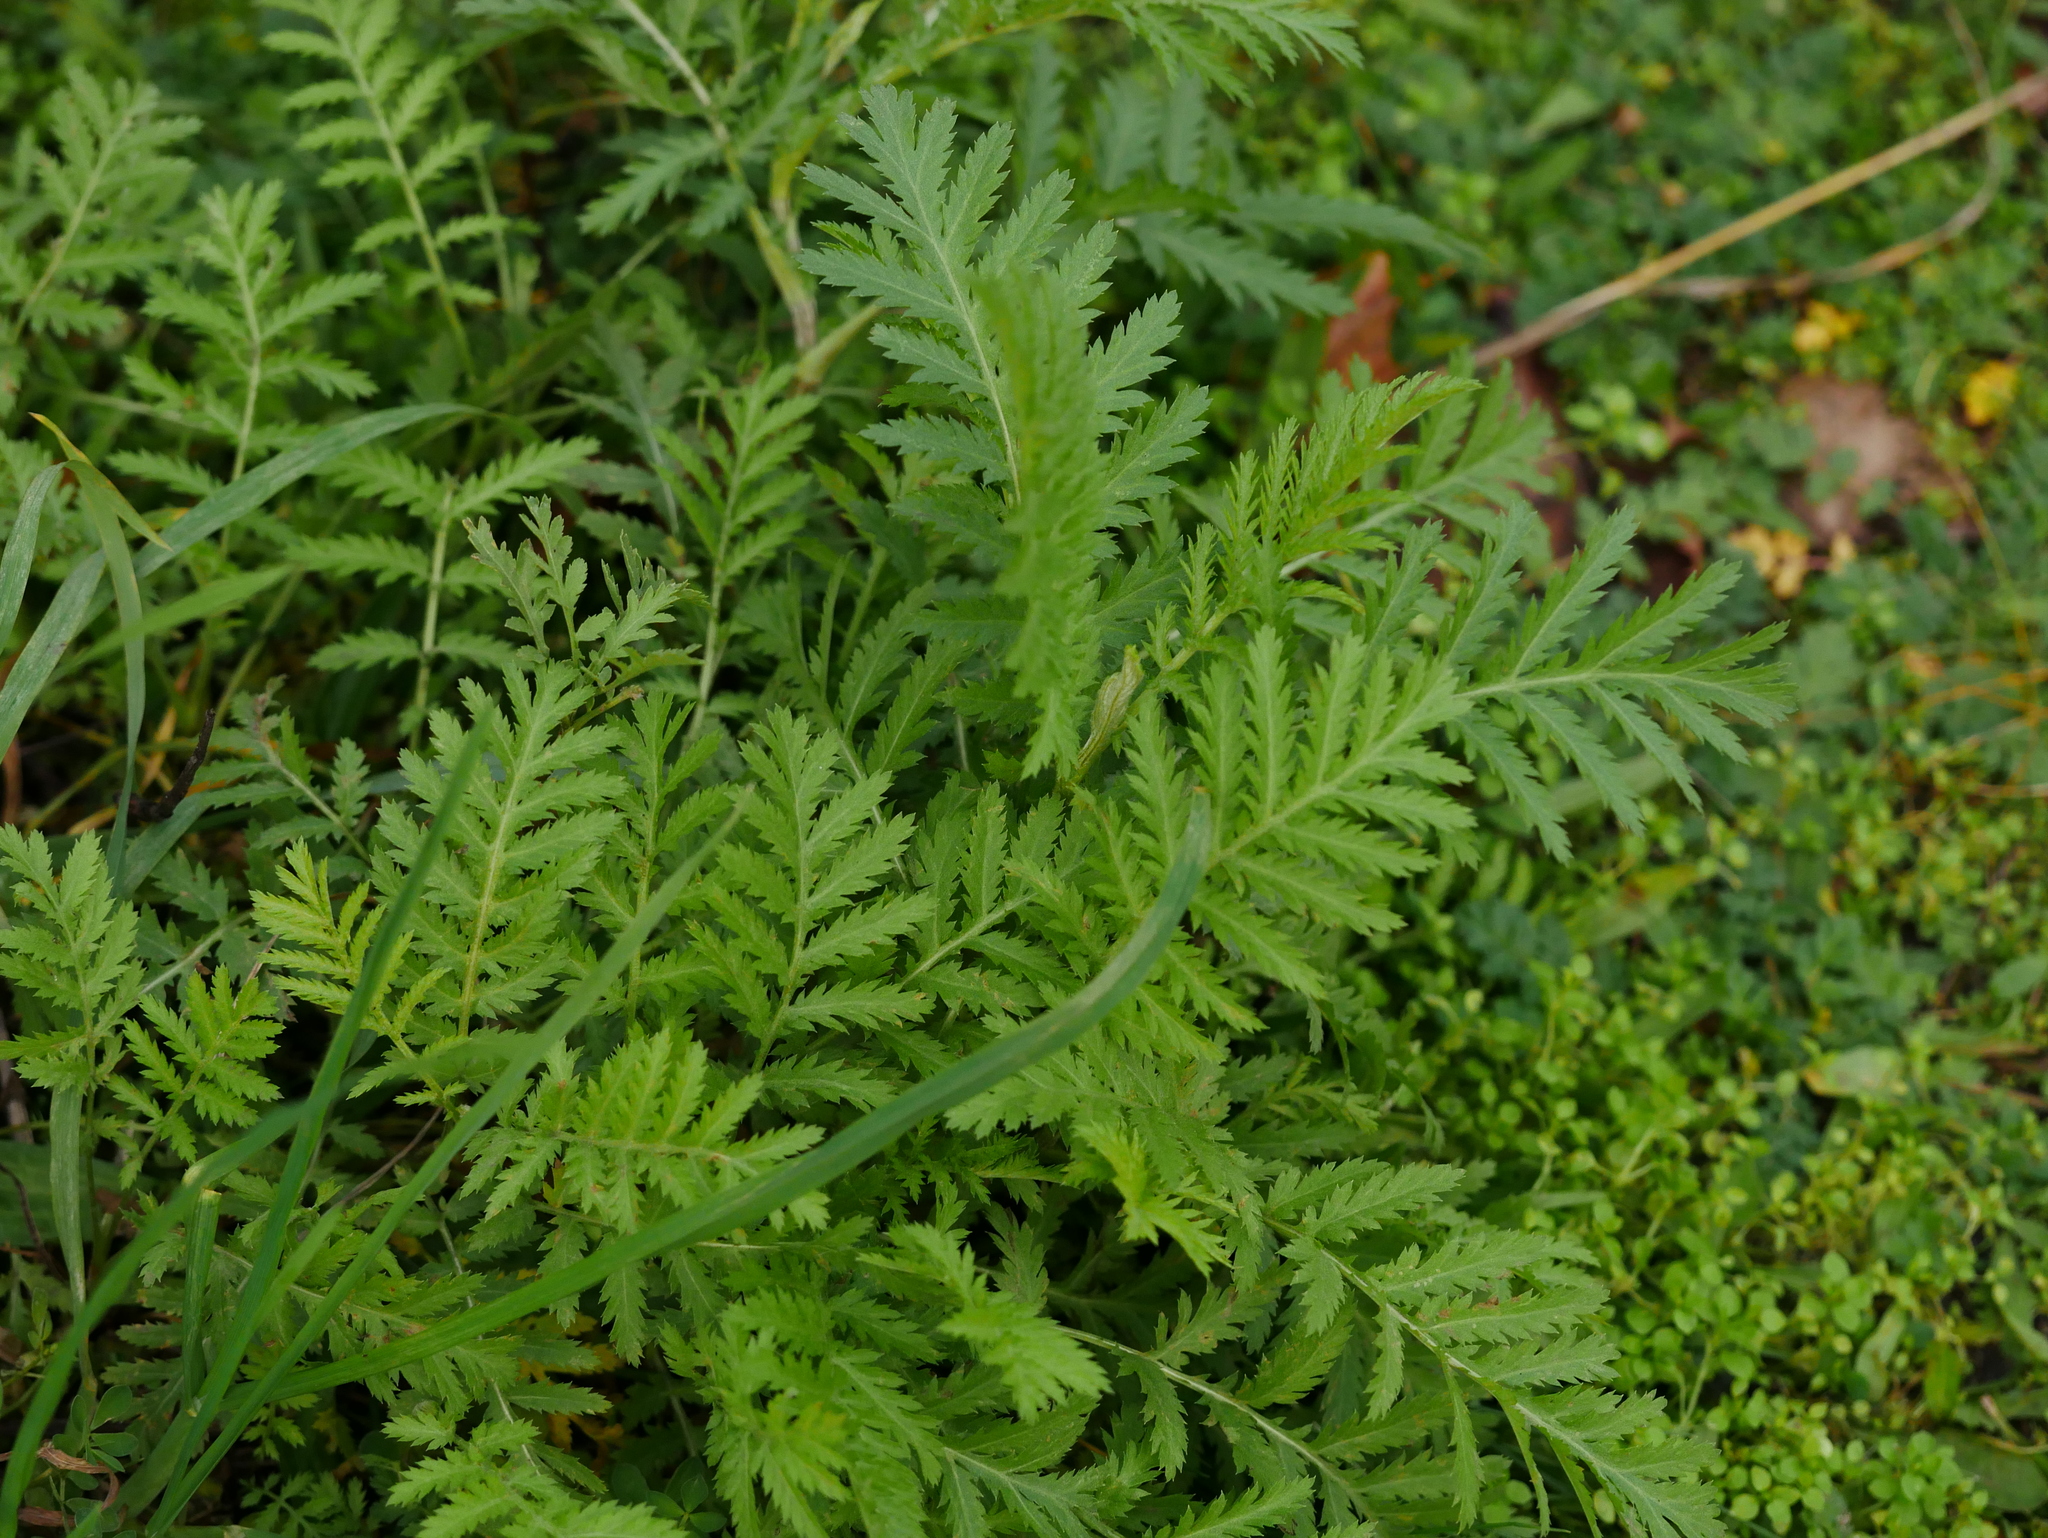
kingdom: Plantae
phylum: Tracheophyta
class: Magnoliopsida
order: Asterales
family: Asteraceae
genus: Tanacetum
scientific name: Tanacetum vulgare
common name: Common tansy
